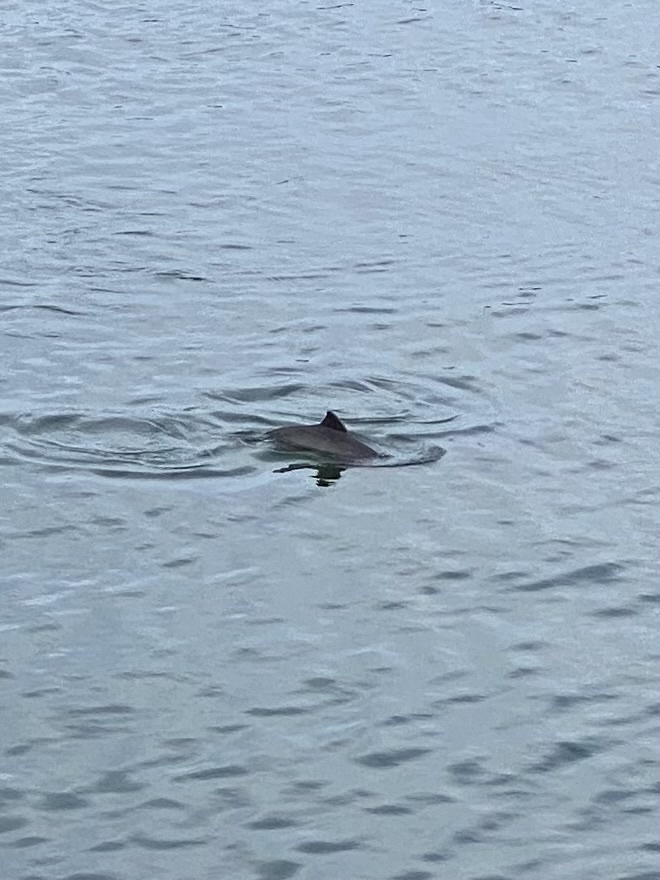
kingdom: Animalia
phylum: Chordata
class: Mammalia
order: Cetacea
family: Phocoenidae
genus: Phocoena
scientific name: Phocoena phocoena
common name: Harbor porpoise
